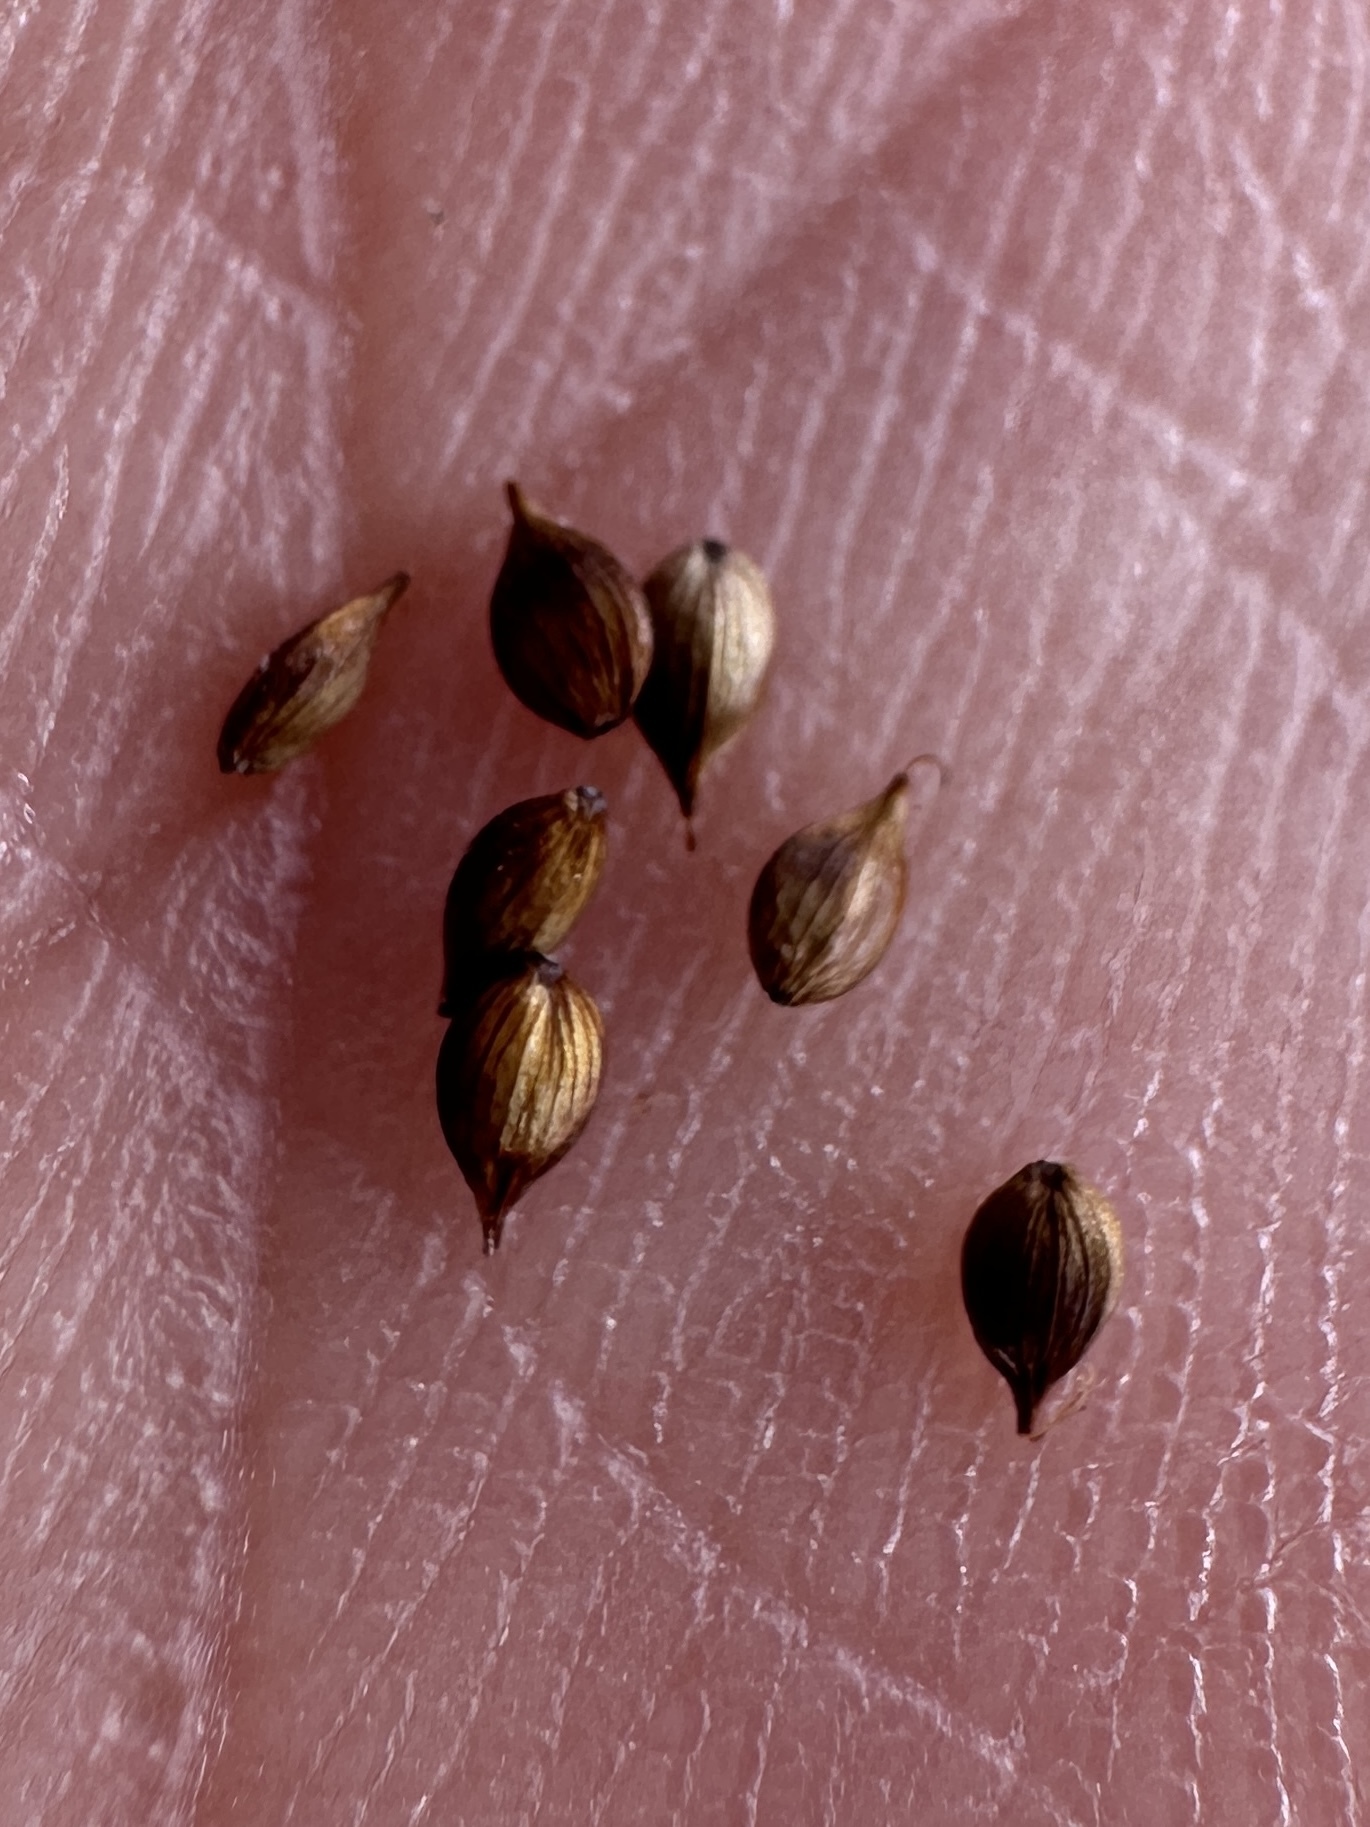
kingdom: Plantae
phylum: Tracheophyta
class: Liliopsida
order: Poales
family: Cyperaceae
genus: Carex
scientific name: Carex praeceptorum
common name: Early sedge
